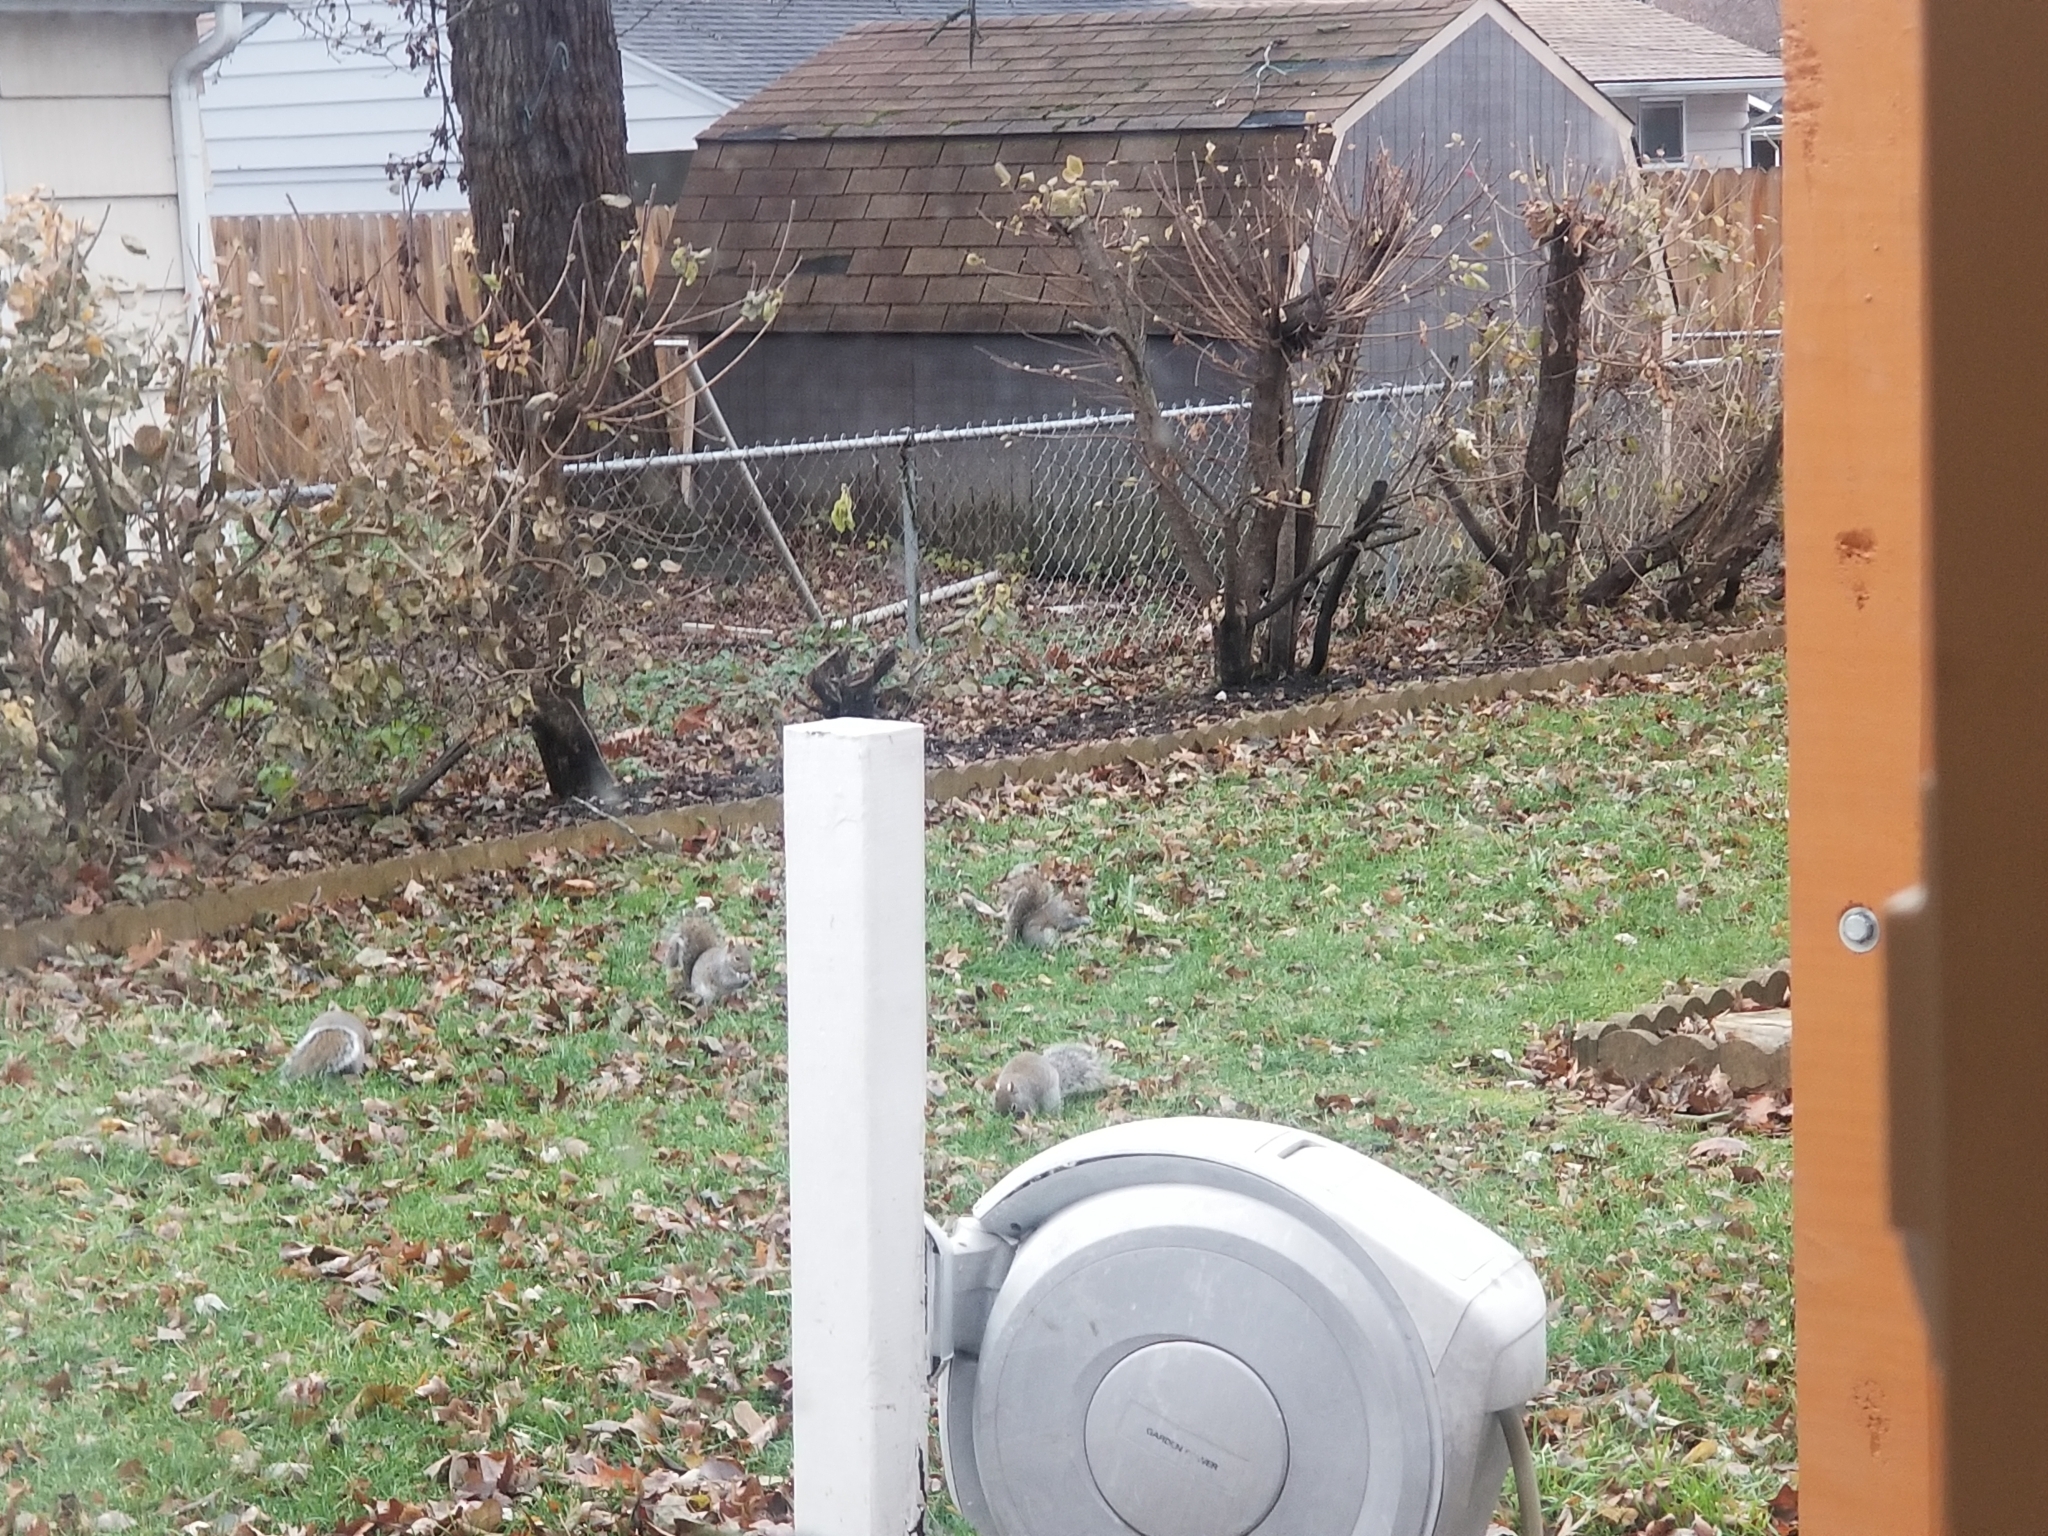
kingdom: Animalia
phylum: Chordata
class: Mammalia
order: Rodentia
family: Sciuridae
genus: Sciurus
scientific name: Sciurus carolinensis
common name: Eastern gray squirrel
